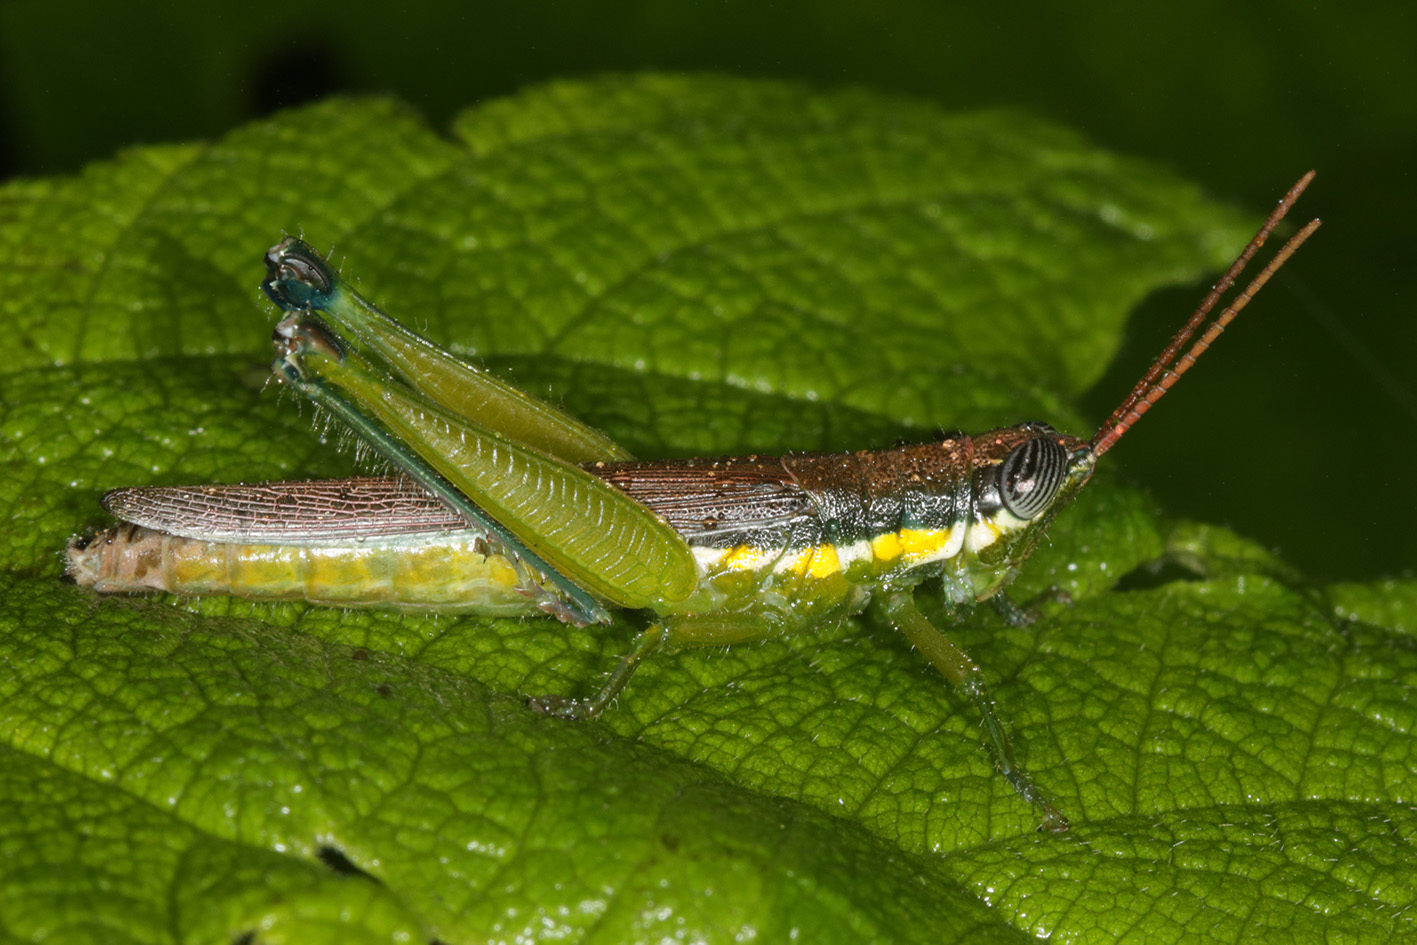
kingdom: Animalia
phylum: Arthropoda
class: Insecta
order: Orthoptera
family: Acrididae
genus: Stenopola
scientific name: Stenopola puncticeps
